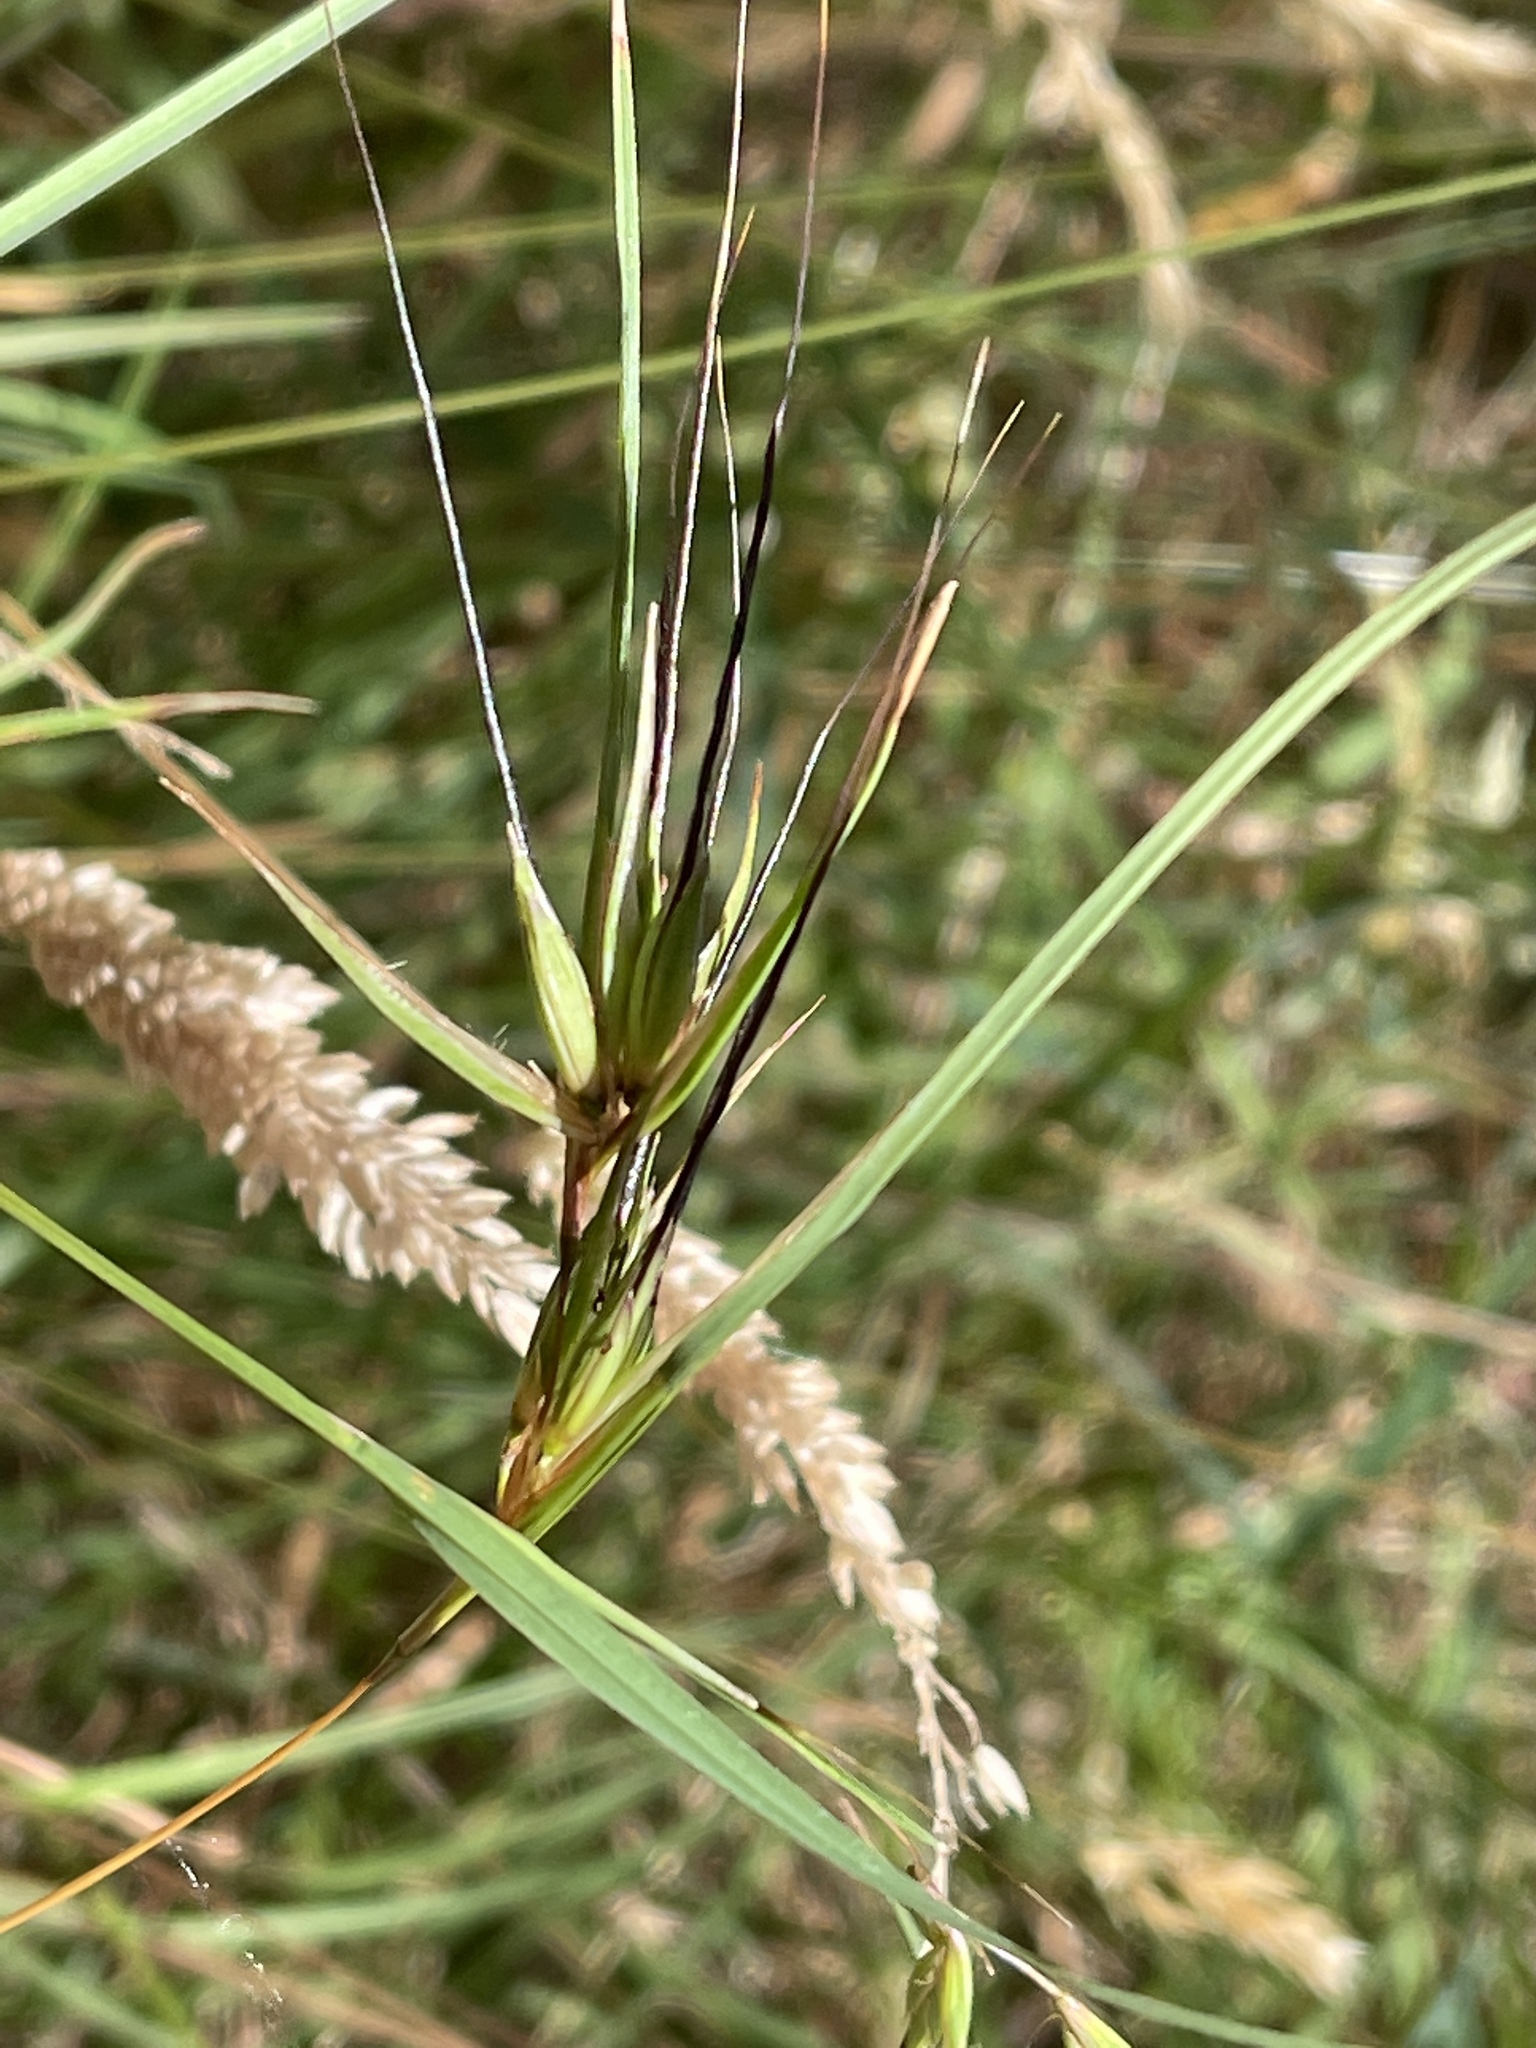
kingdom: Plantae
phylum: Tracheophyta
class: Liliopsida
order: Poales
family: Poaceae
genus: Themeda
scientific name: Themeda triandra
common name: Kangaroo grass
